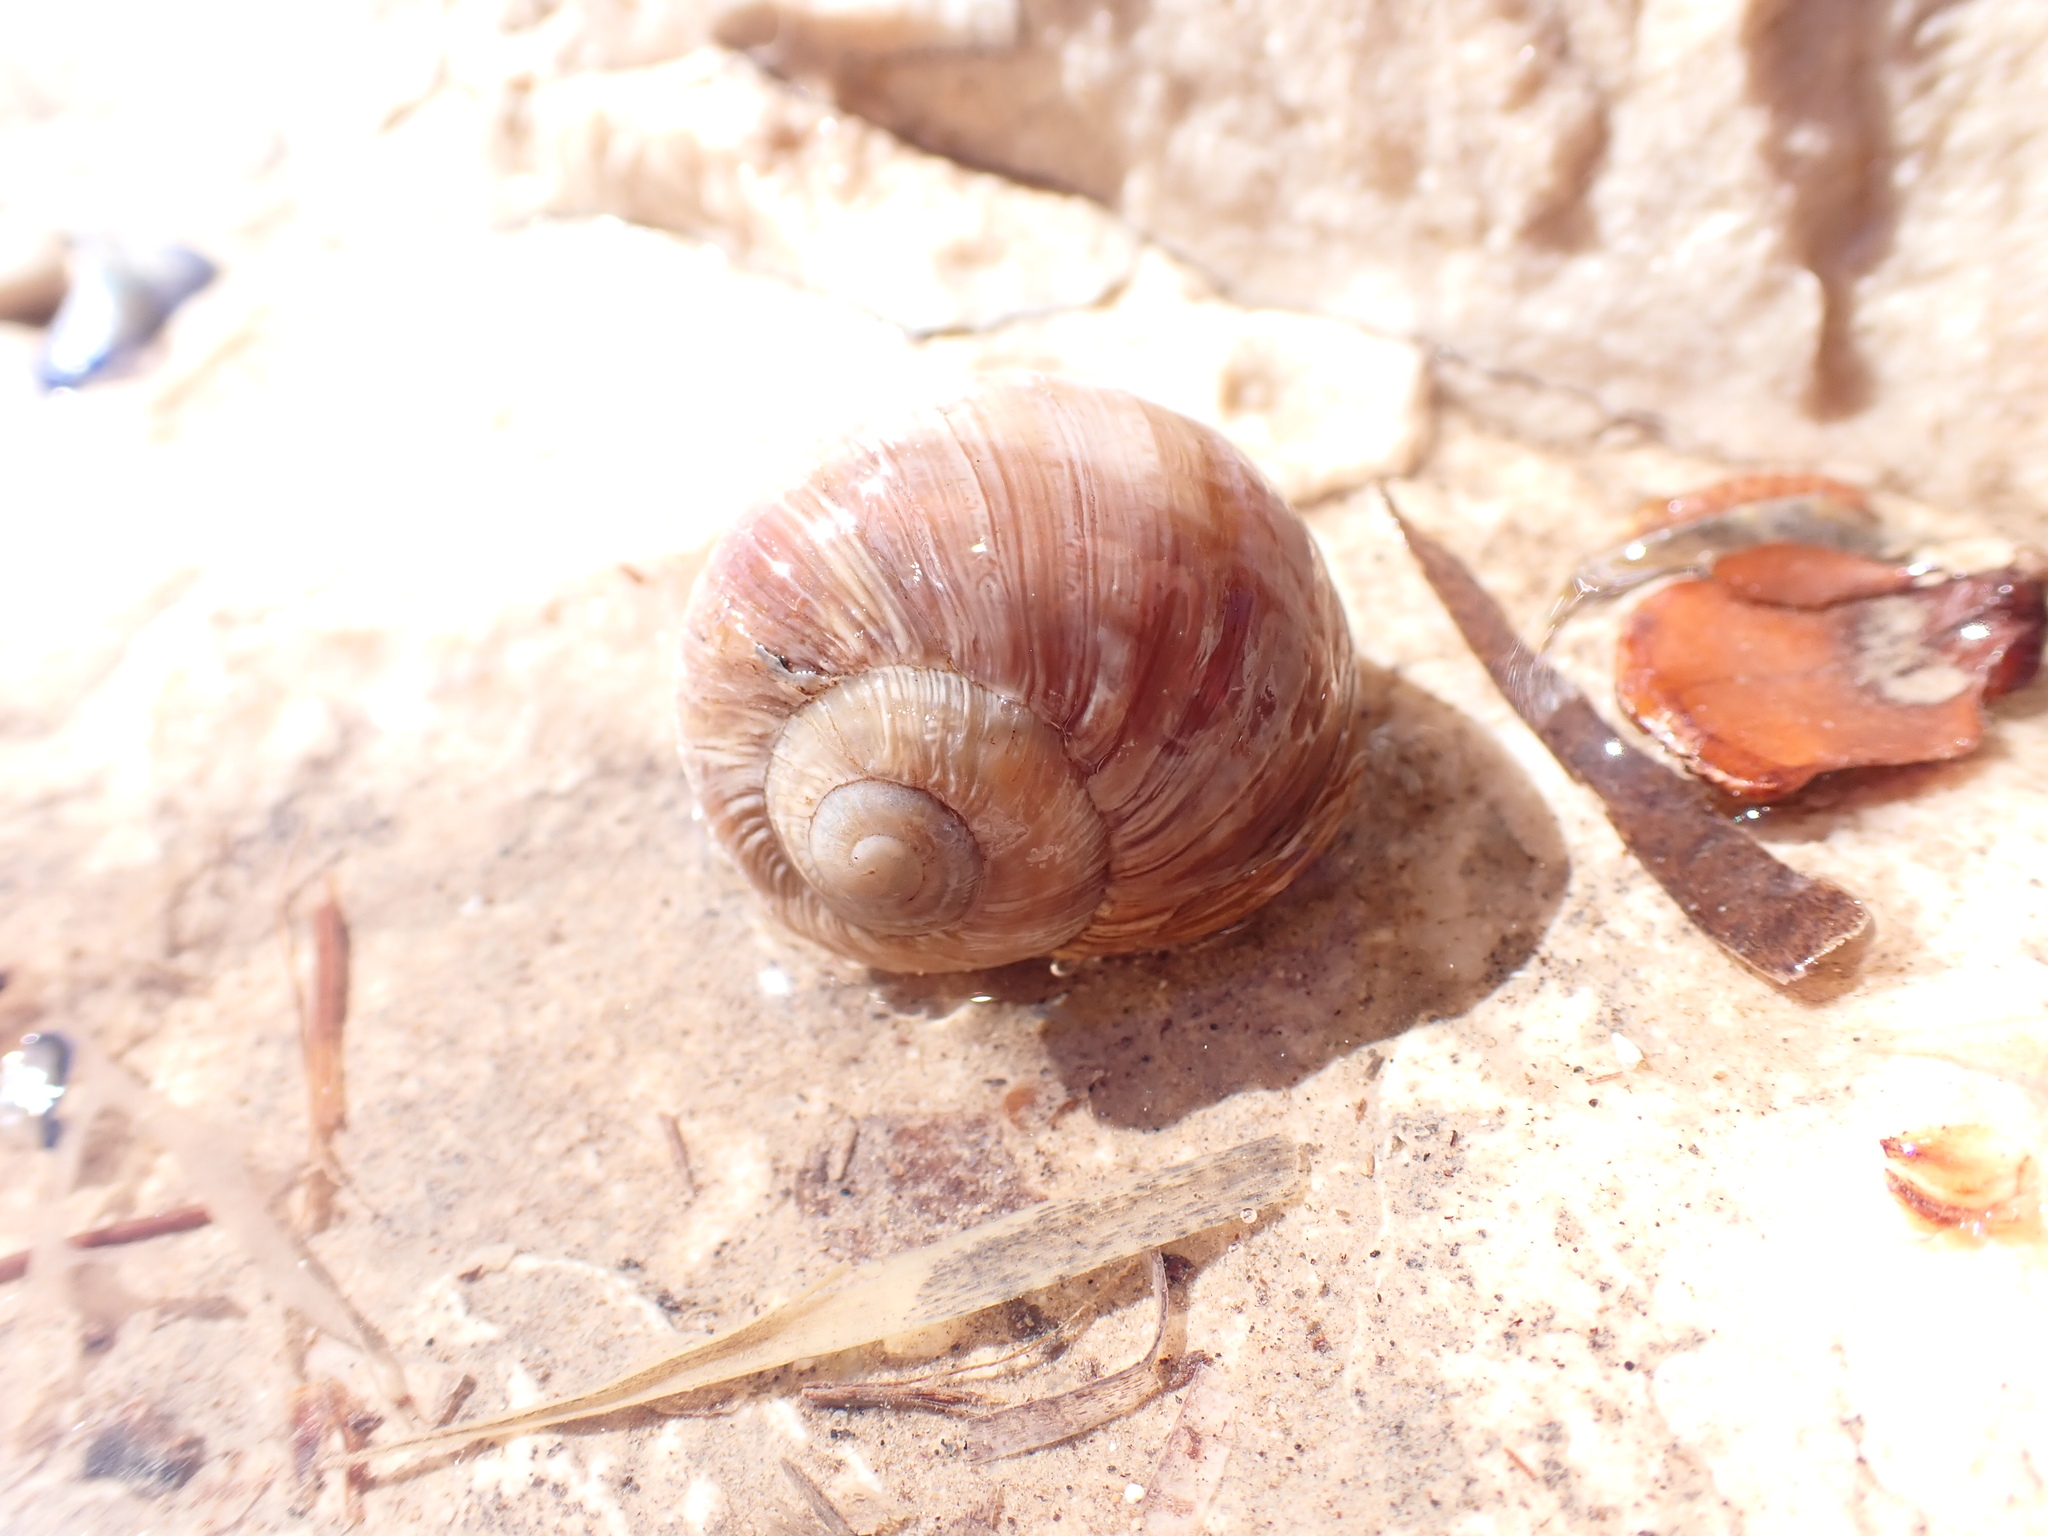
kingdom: Animalia
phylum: Mollusca
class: Gastropoda
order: Stylommatophora
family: Helicidae
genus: Helix
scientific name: Helix melanostoma
